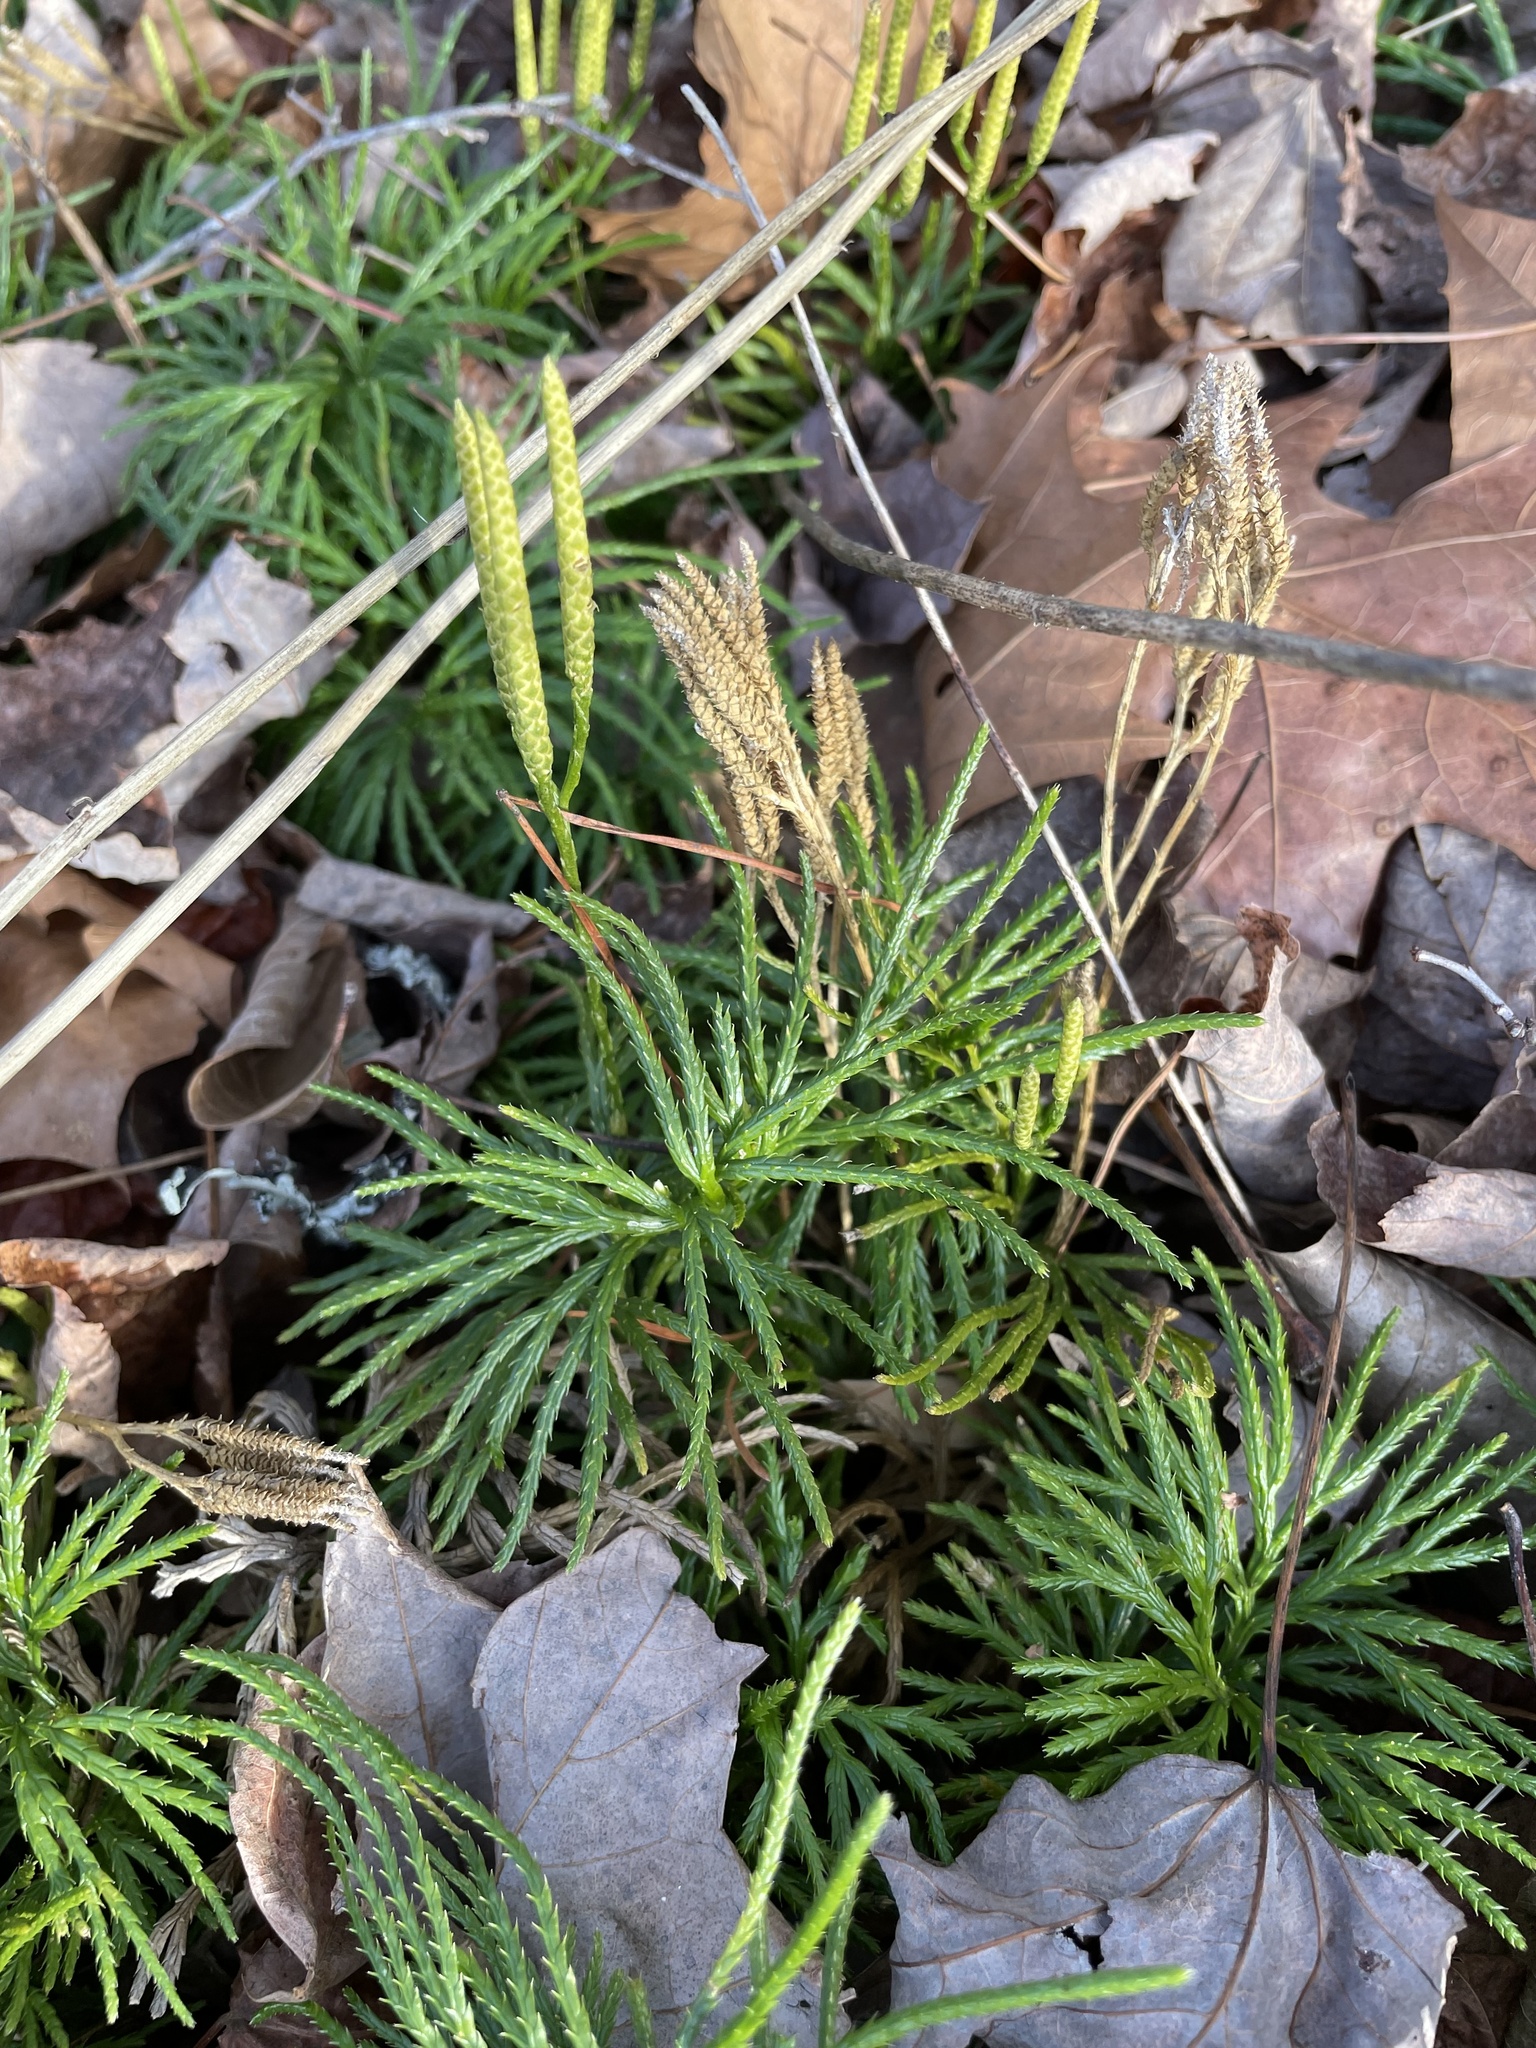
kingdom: Plantae
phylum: Tracheophyta
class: Lycopodiopsida
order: Lycopodiales
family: Lycopodiaceae
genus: Diphasiastrum
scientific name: Diphasiastrum digitatum
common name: Southern running-pine
